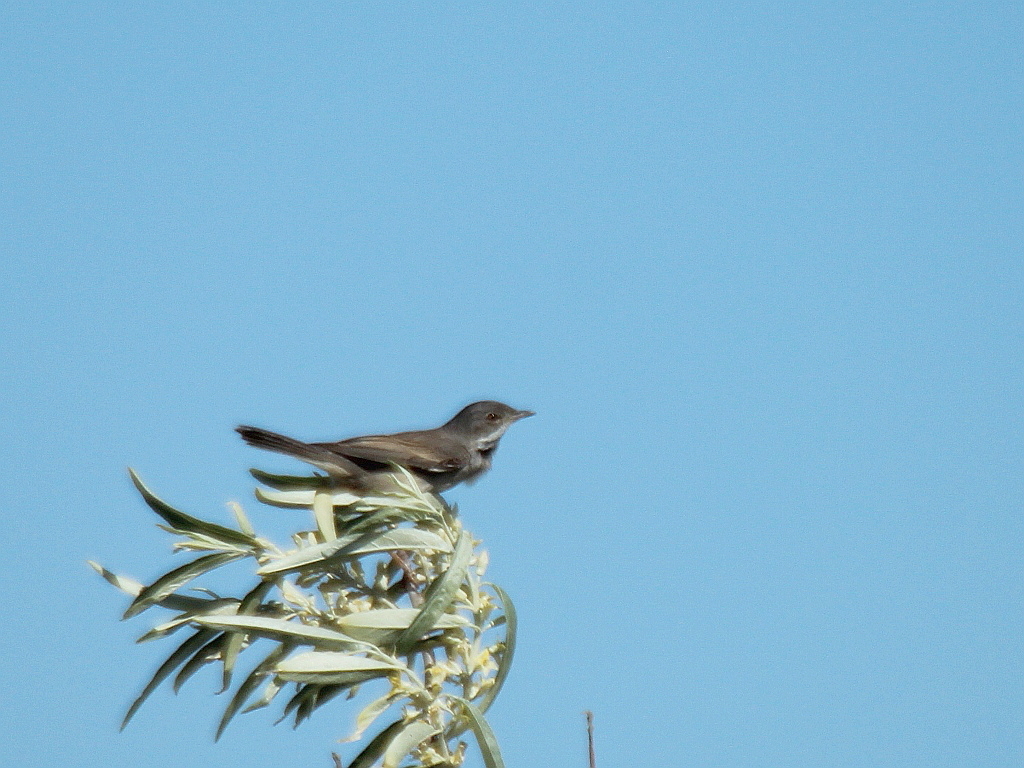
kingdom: Animalia
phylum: Chordata
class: Aves
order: Passeriformes
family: Sylviidae
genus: Sylvia
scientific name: Sylvia communis
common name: Common whitethroat
